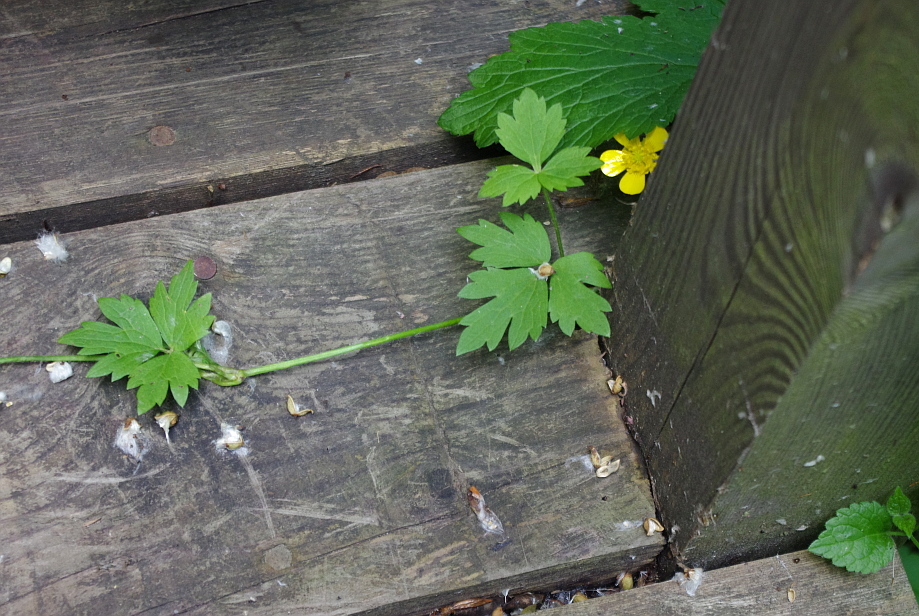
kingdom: Plantae
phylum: Tracheophyta
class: Magnoliopsida
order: Ranunculales
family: Ranunculaceae
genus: Ranunculus
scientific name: Ranunculus repens
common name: Creeping buttercup
